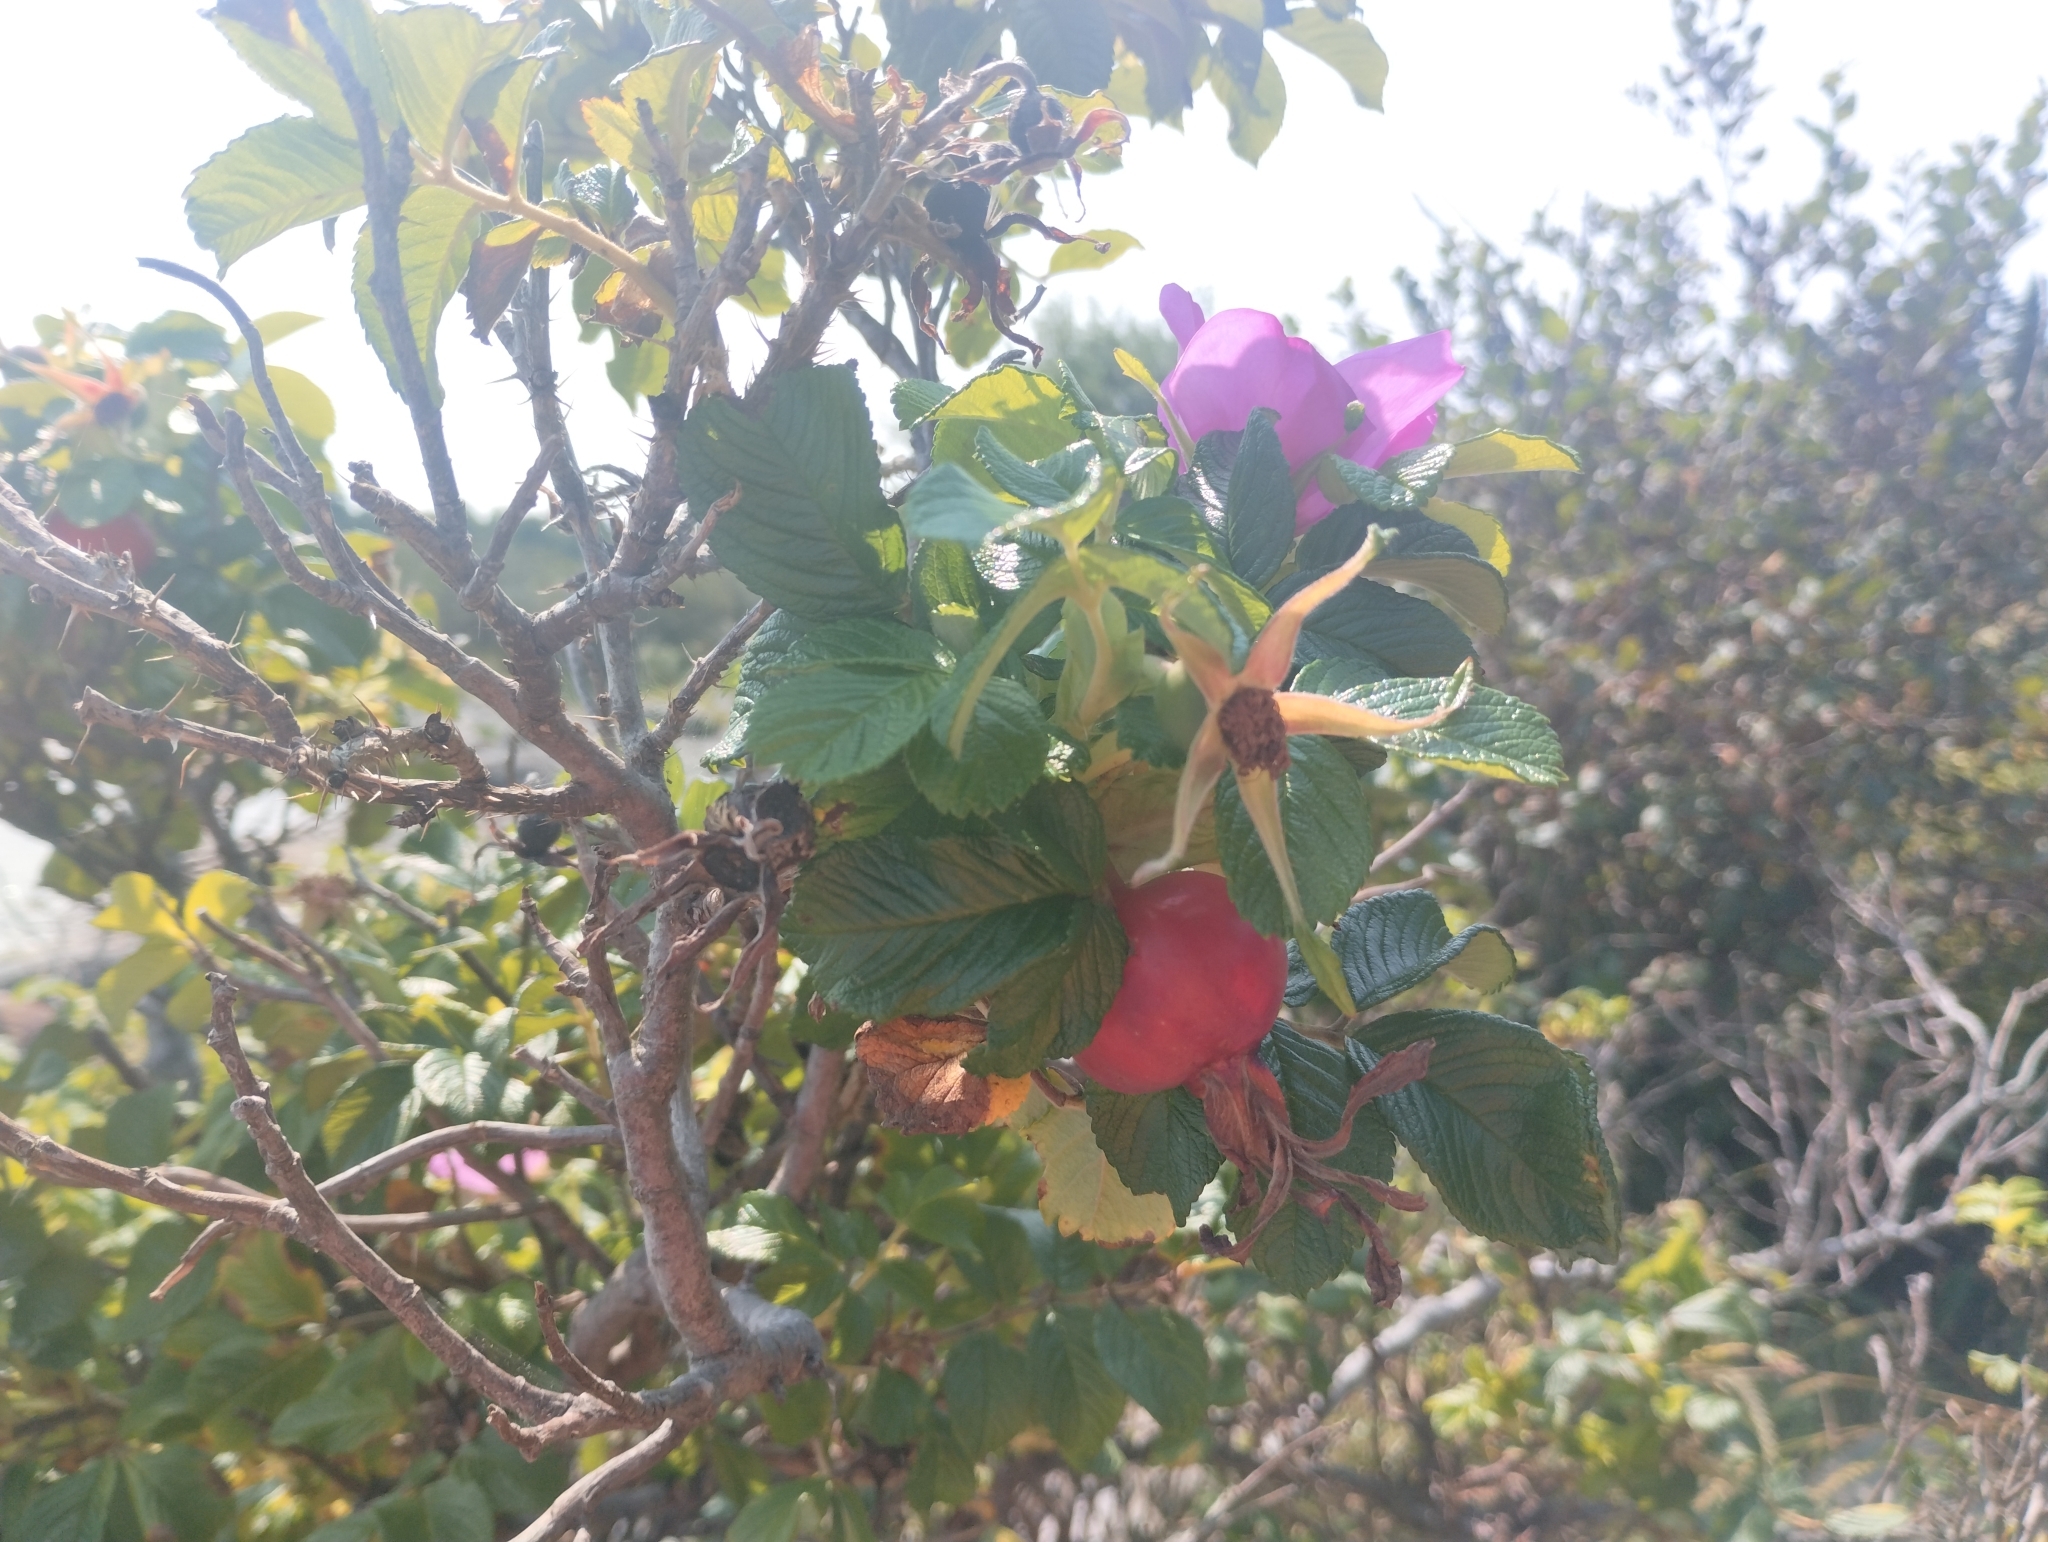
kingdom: Plantae
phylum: Tracheophyta
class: Magnoliopsida
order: Rosales
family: Rosaceae
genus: Rosa
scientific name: Rosa rugosa
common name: Japanese rose
